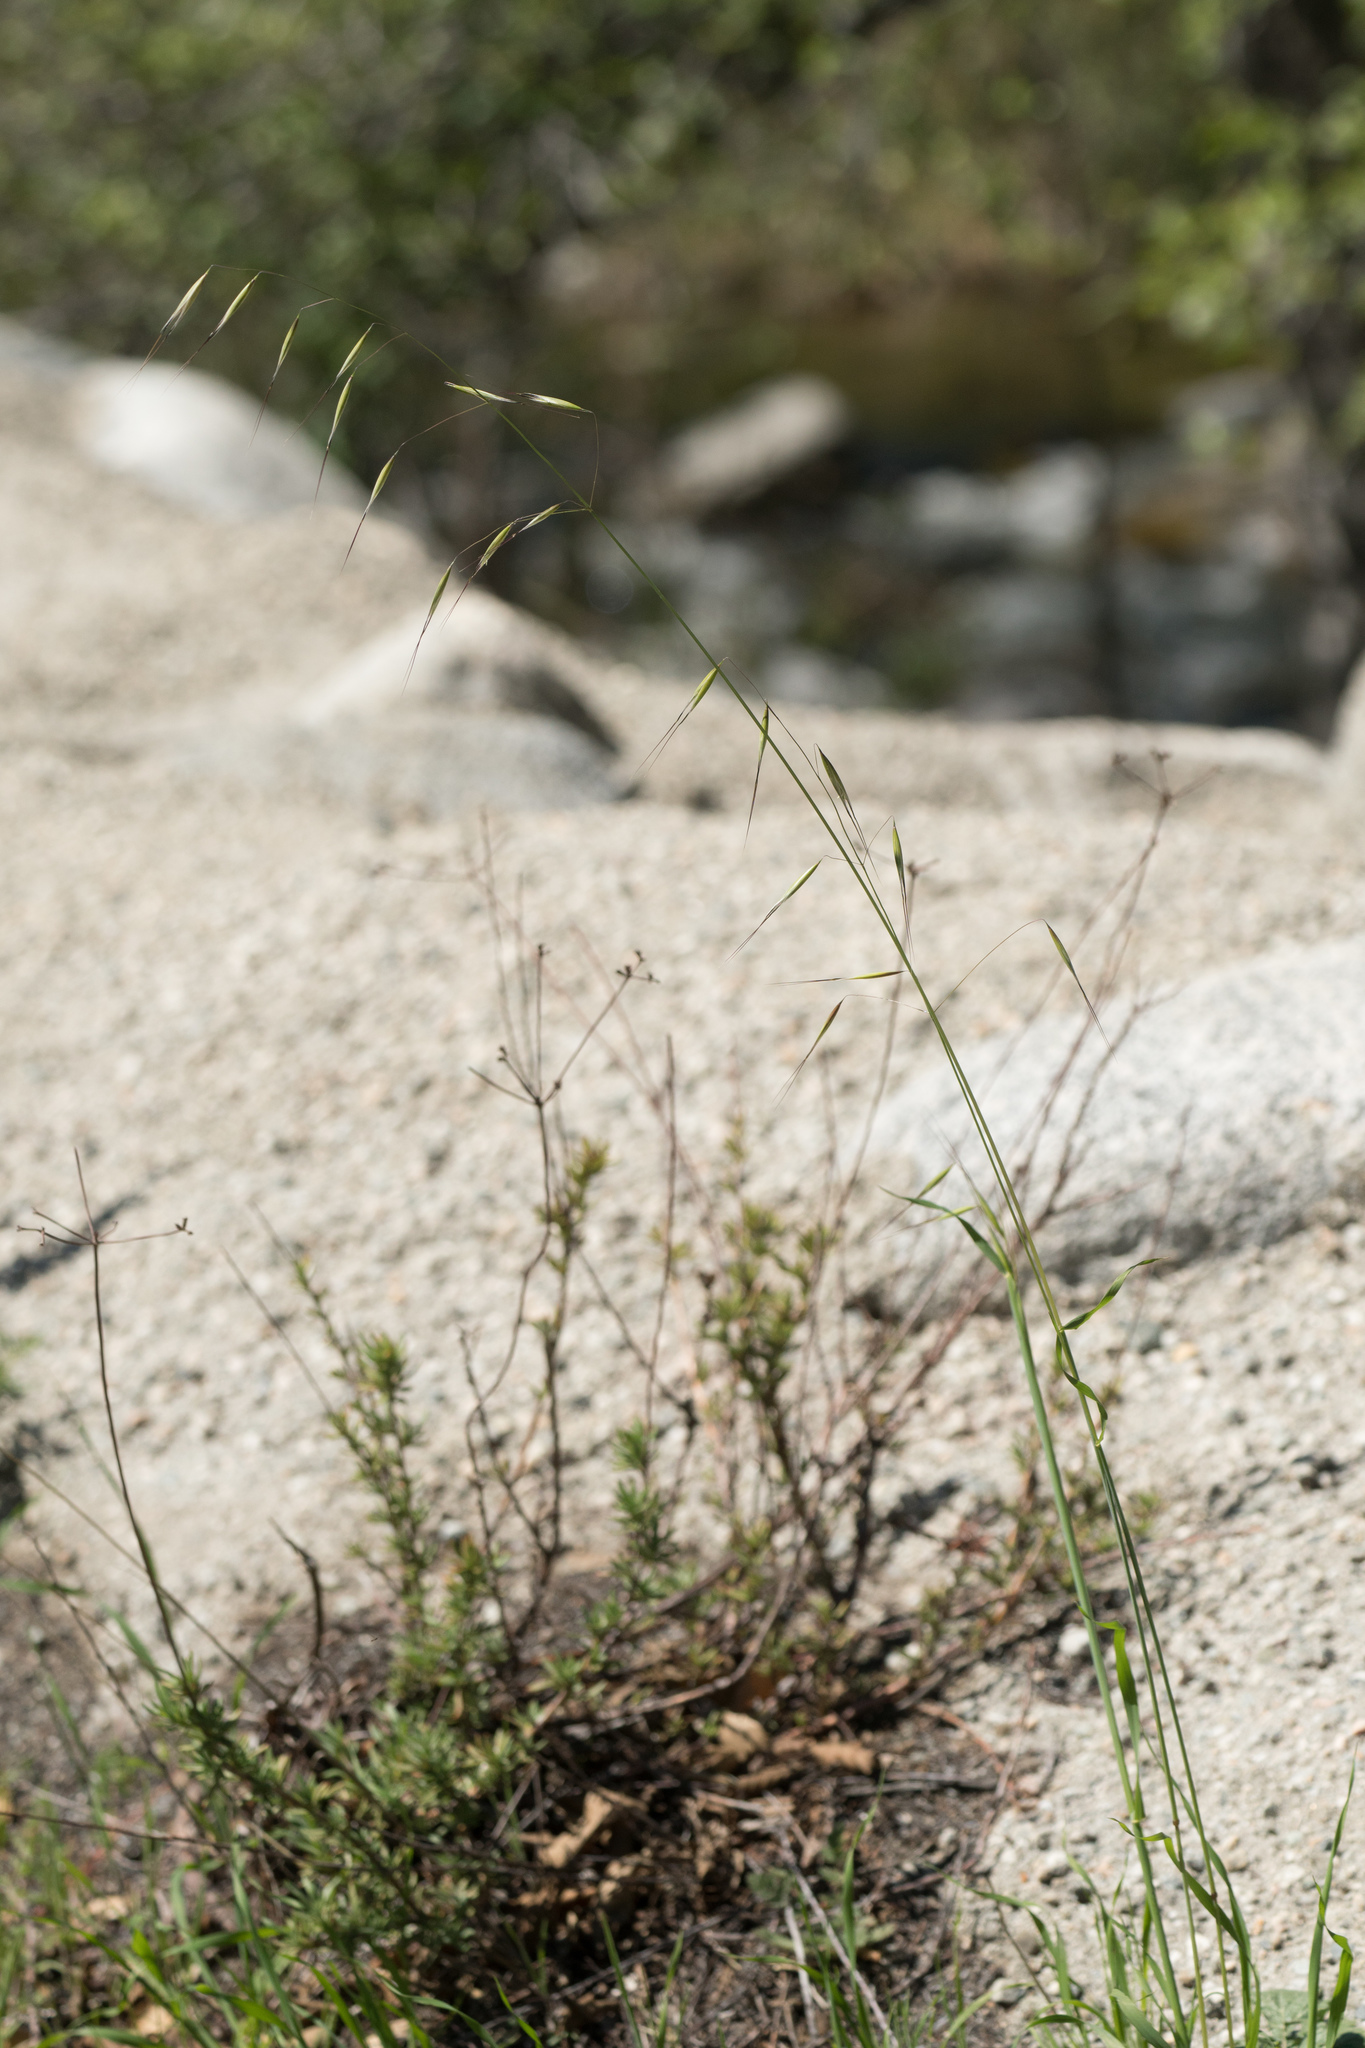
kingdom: Plantae
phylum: Tracheophyta
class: Liliopsida
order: Poales
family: Poaceae
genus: Avena
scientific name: Avena barbata
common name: Slender oat
